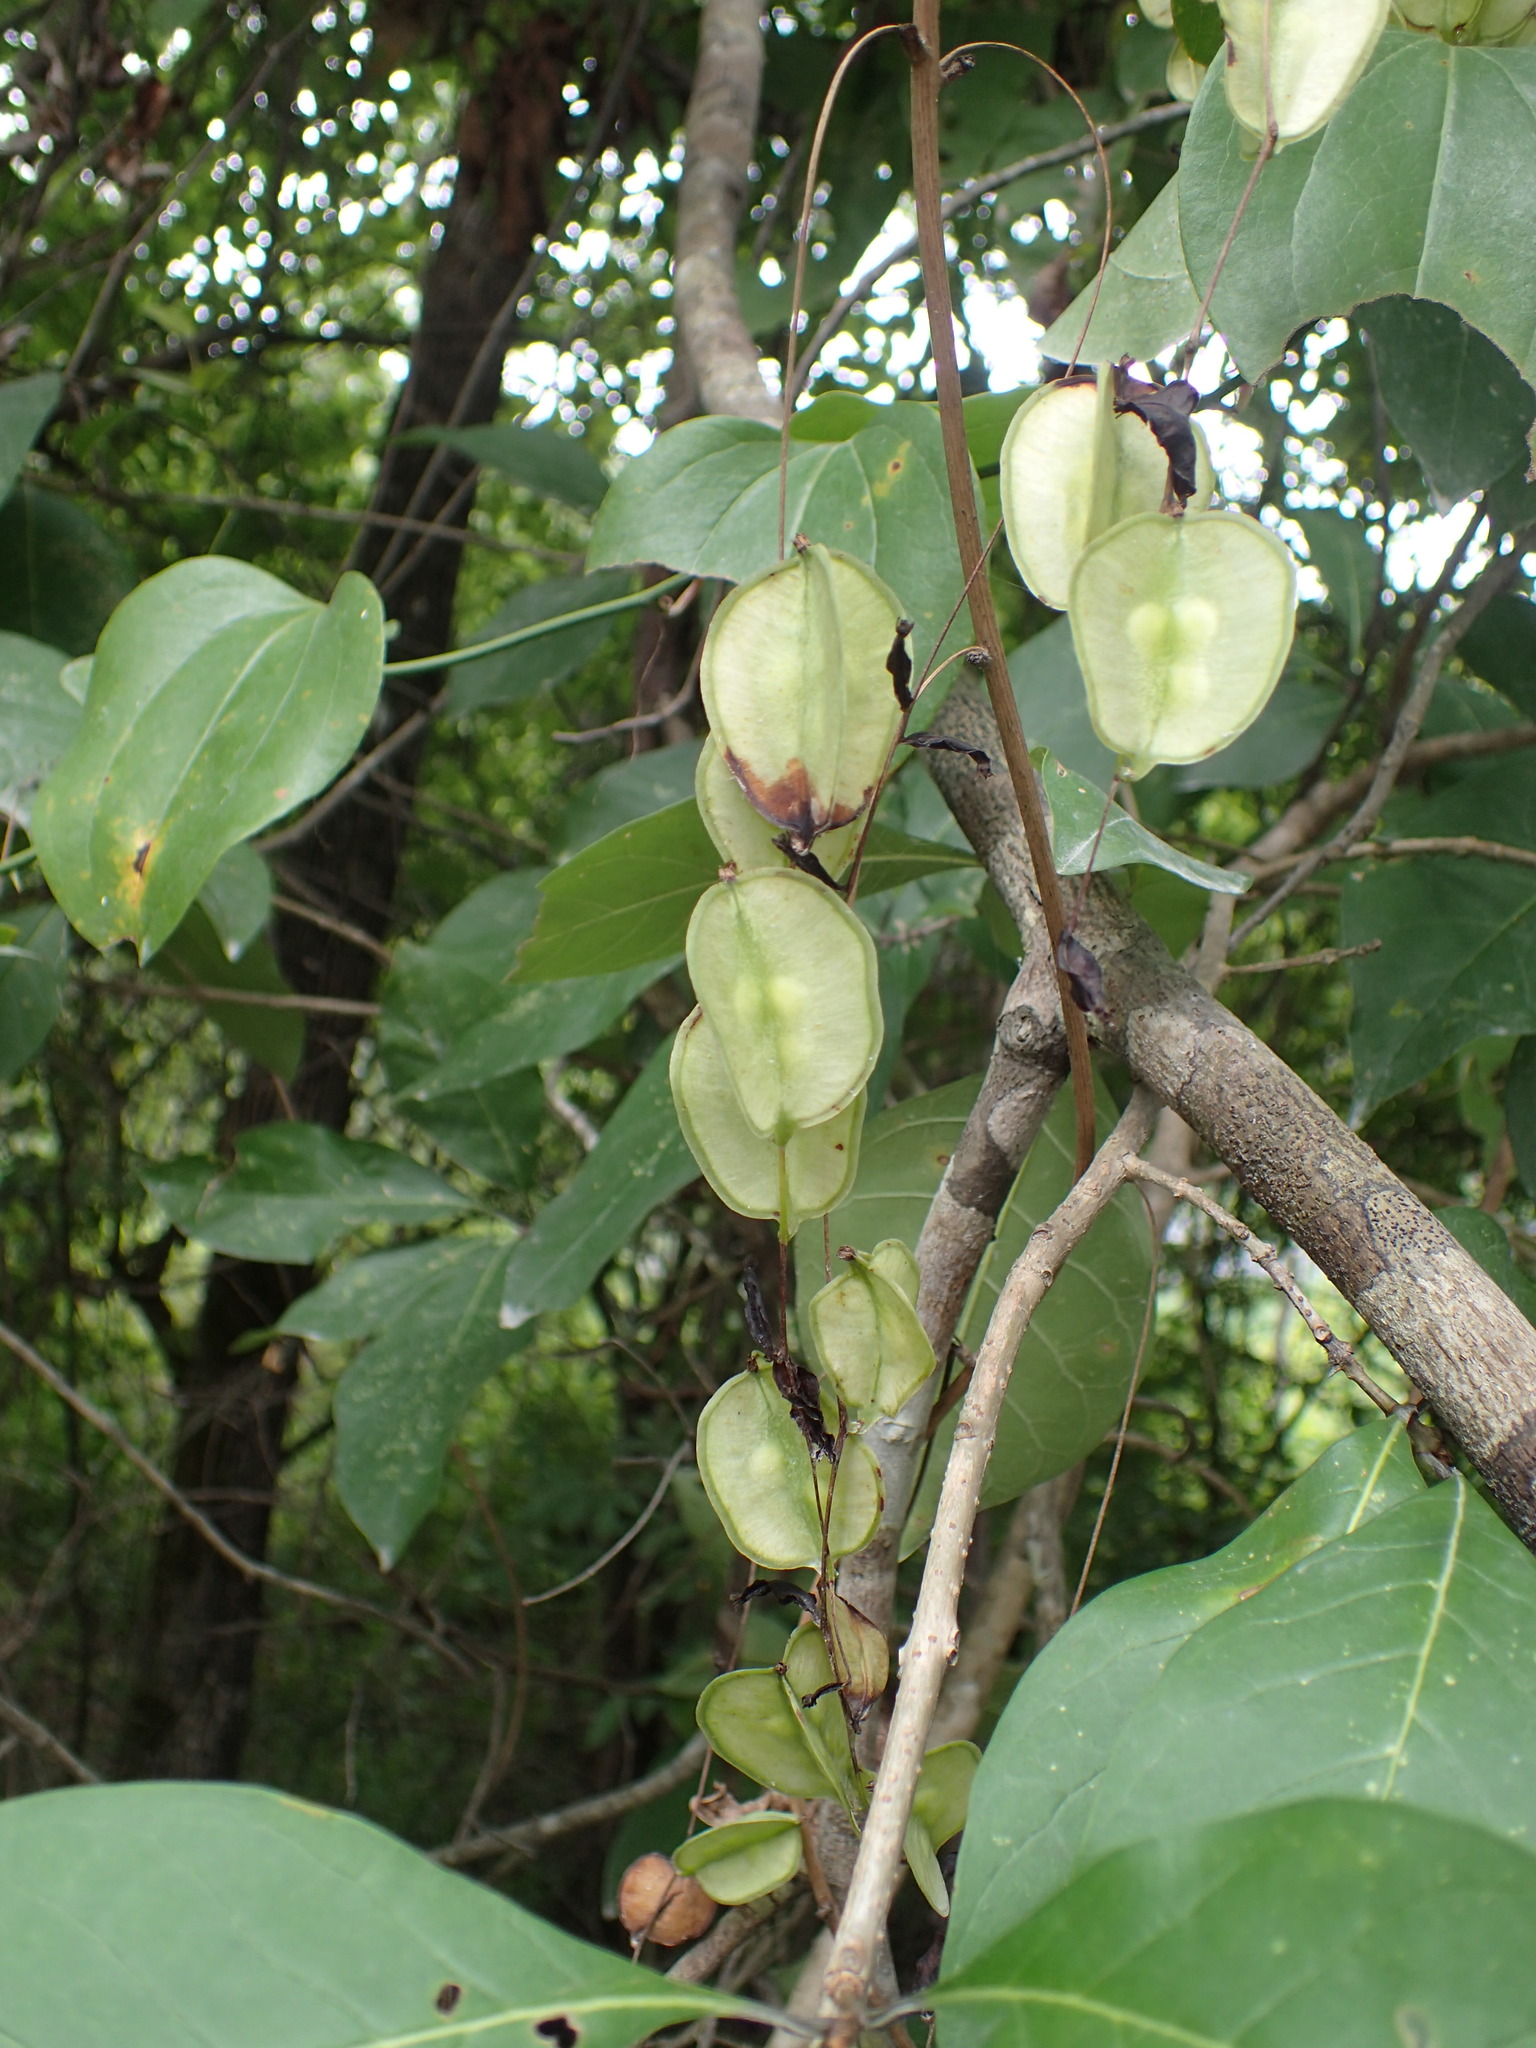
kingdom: Plantae
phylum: Tracheophyta
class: Liliopsida
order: Dioscoreales
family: Dioscoreaceae
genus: Dioscorea
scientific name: Dioscorea villosa
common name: Wild yam
